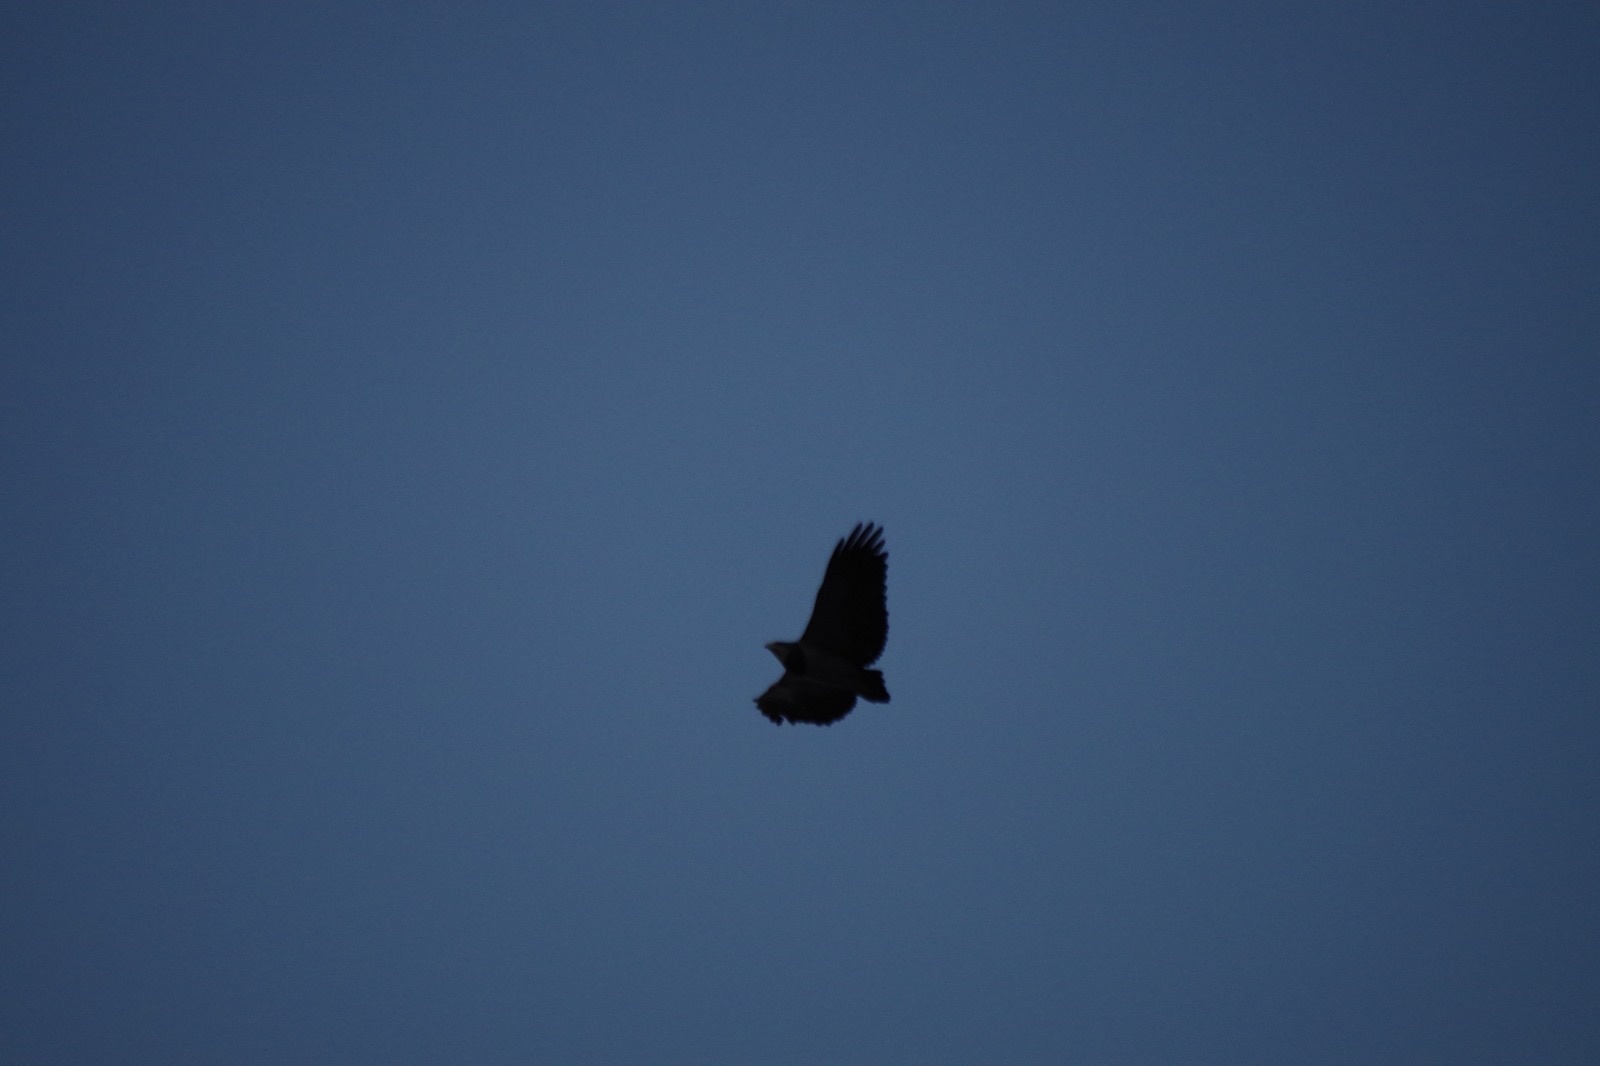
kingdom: Animalia
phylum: Chordata
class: Aves
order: Accipitriformes
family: Accipitridae
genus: Geranoaetus
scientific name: Geranoaetus melanoleucus
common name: Black-chested buzzard-eagle
